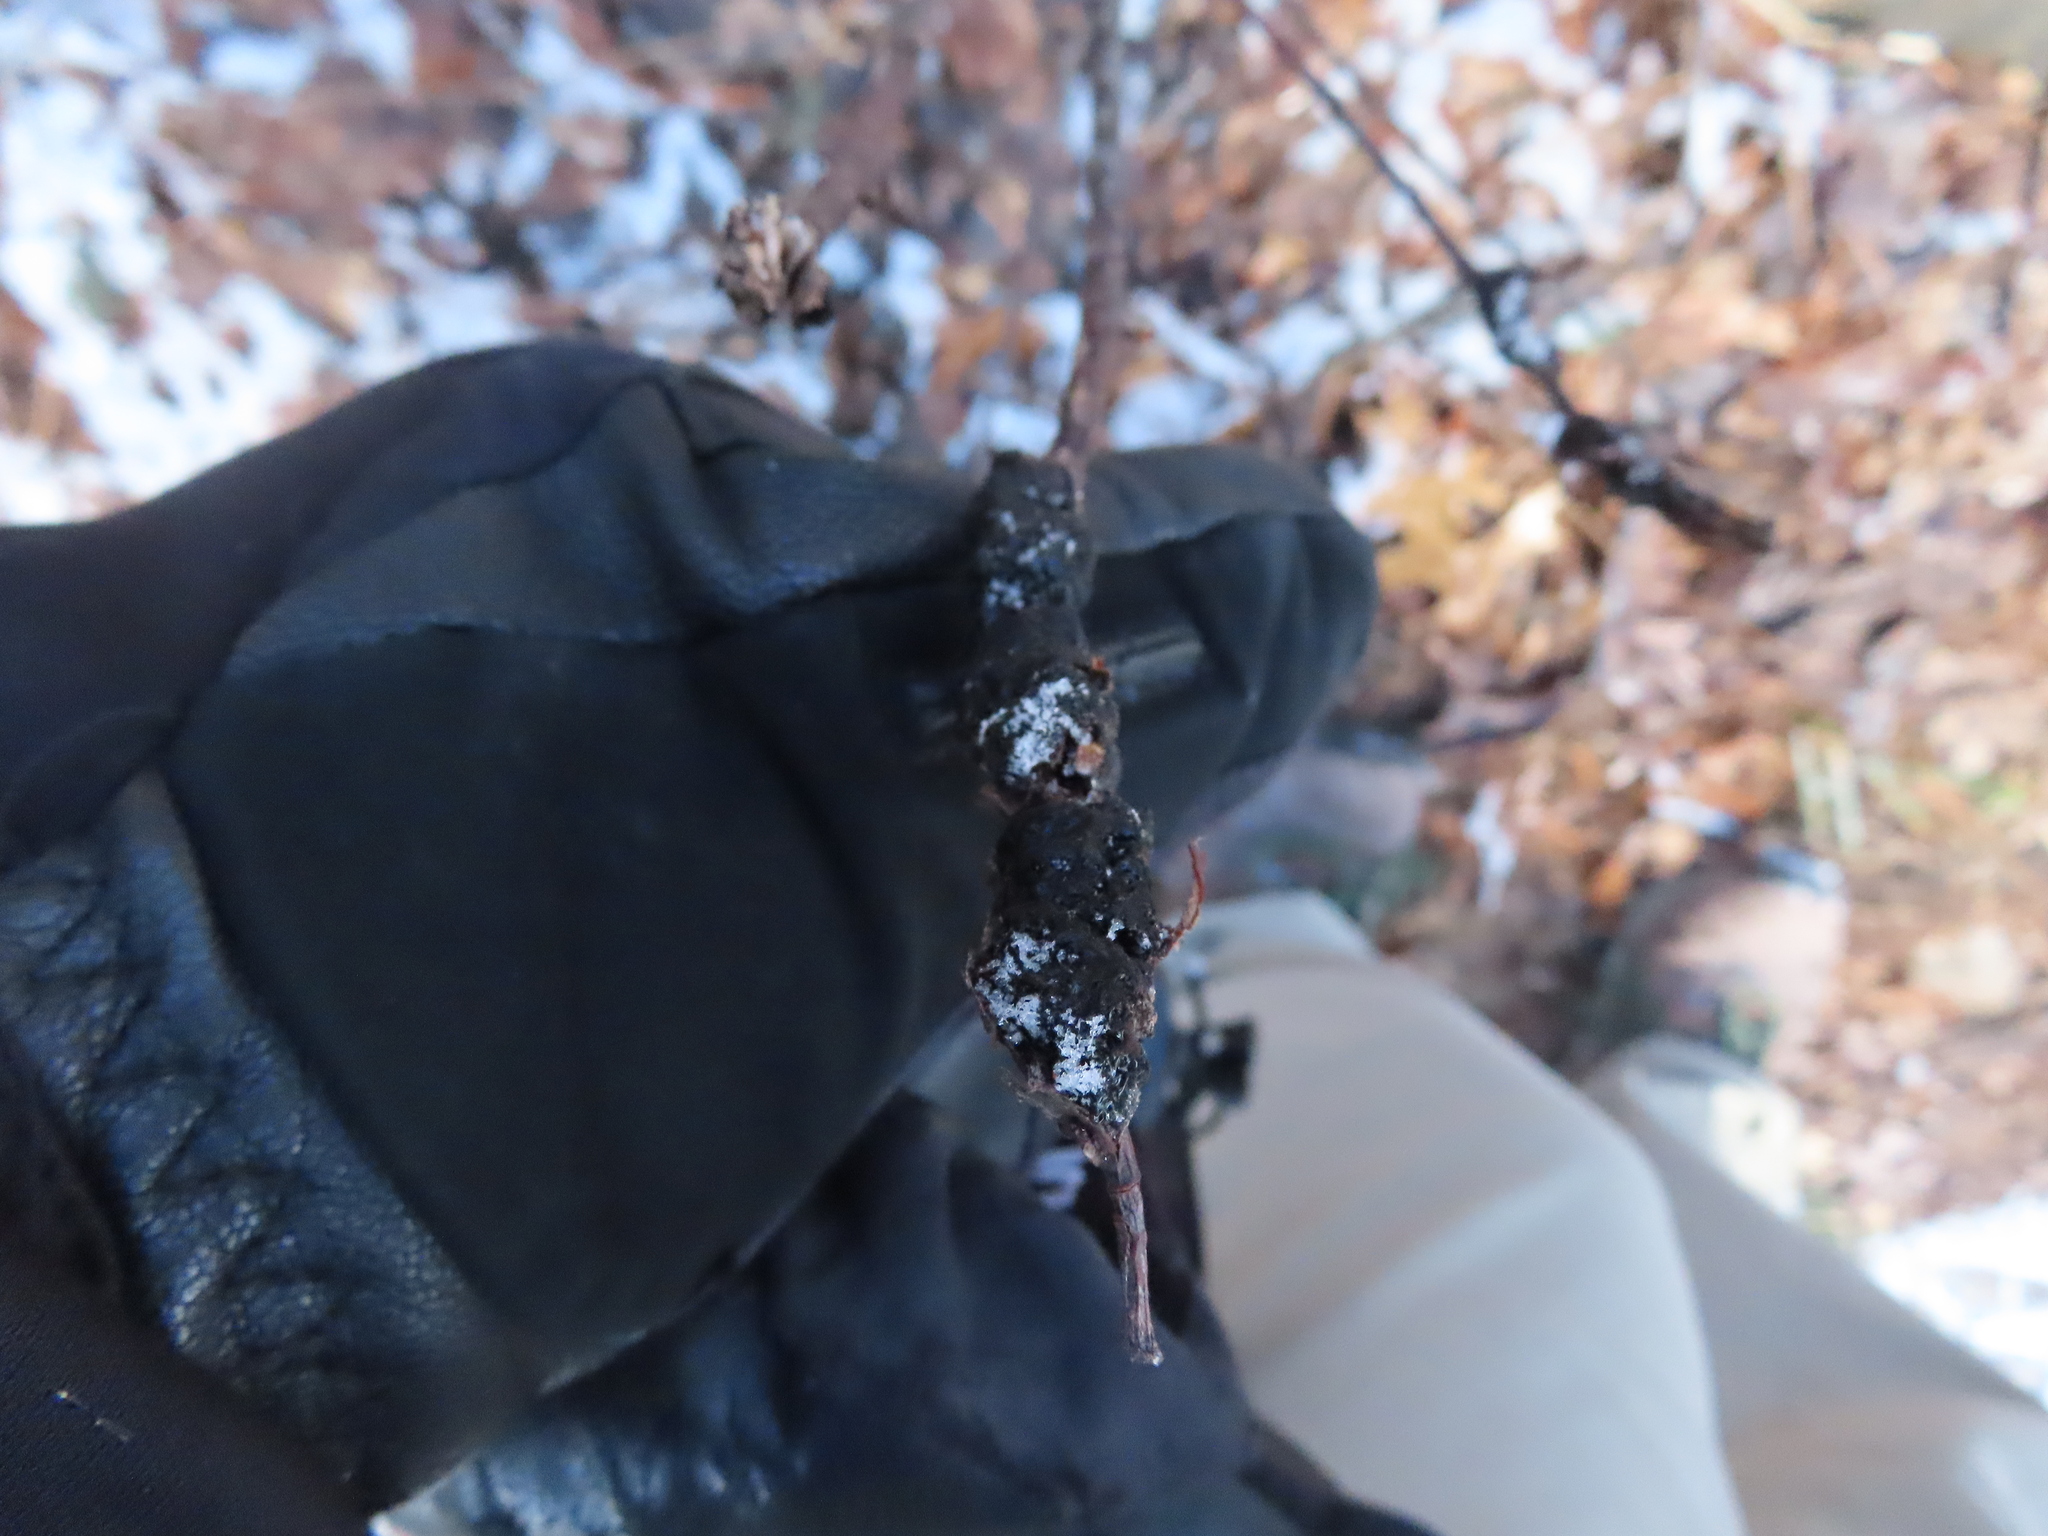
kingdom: Fungi
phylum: Ascomycota
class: Dothideomycetes
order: Venturiales
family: Venturiaceae
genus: Apiosporina
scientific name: Apiosporina morbosa
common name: Black knot
